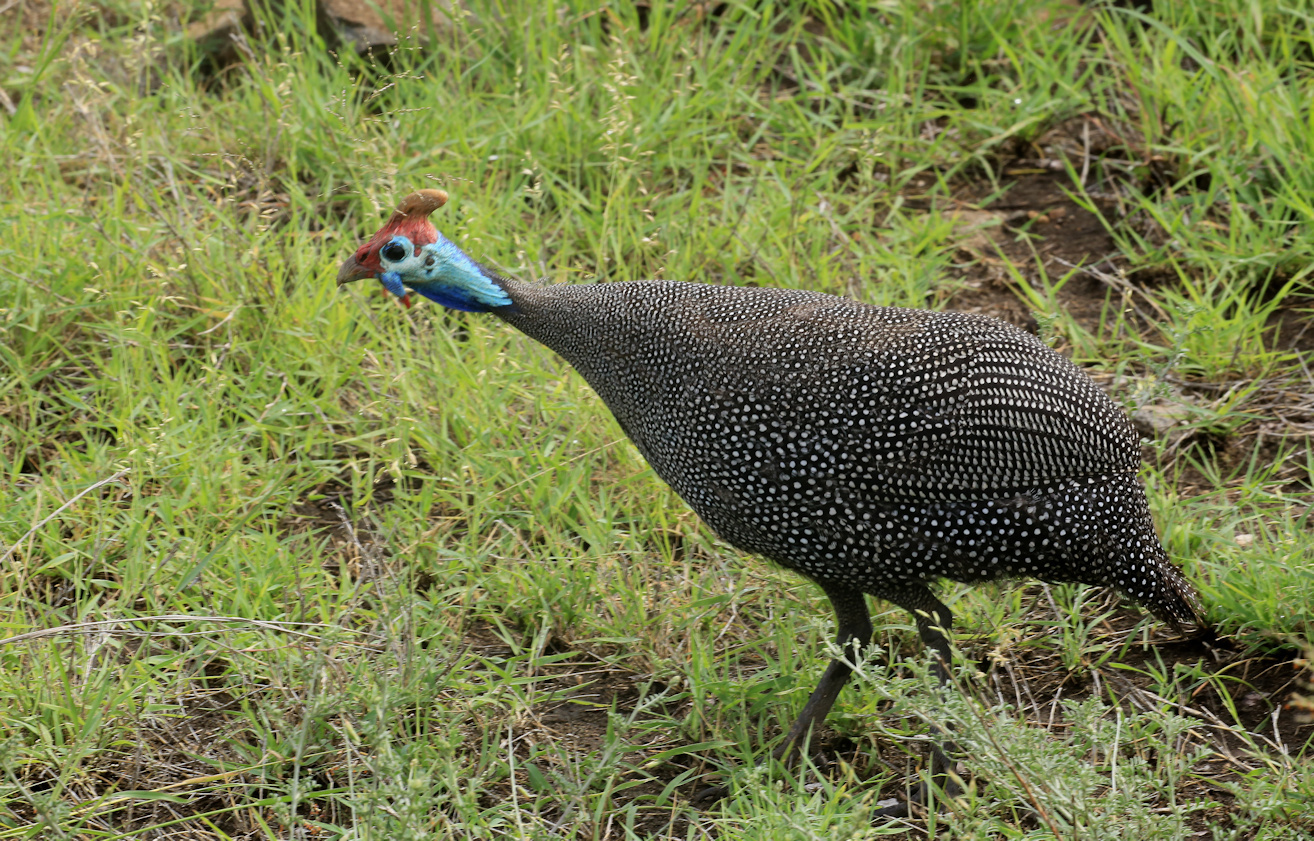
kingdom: Animalia
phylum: Chordata
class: Aves
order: Galliformes
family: Numididae
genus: Numida
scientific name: Numida meleagris
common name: Helmeted guineafowl
